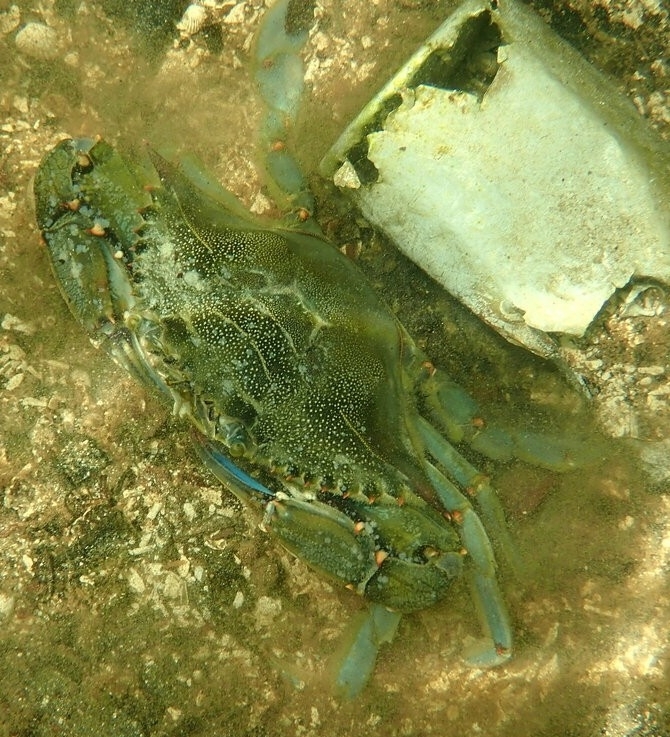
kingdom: Animalia
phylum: Arthropoda
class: Malacostraca
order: Decapoda
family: Portunidae
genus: Callinectes
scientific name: Callinectes sapidus
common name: Blue crab
